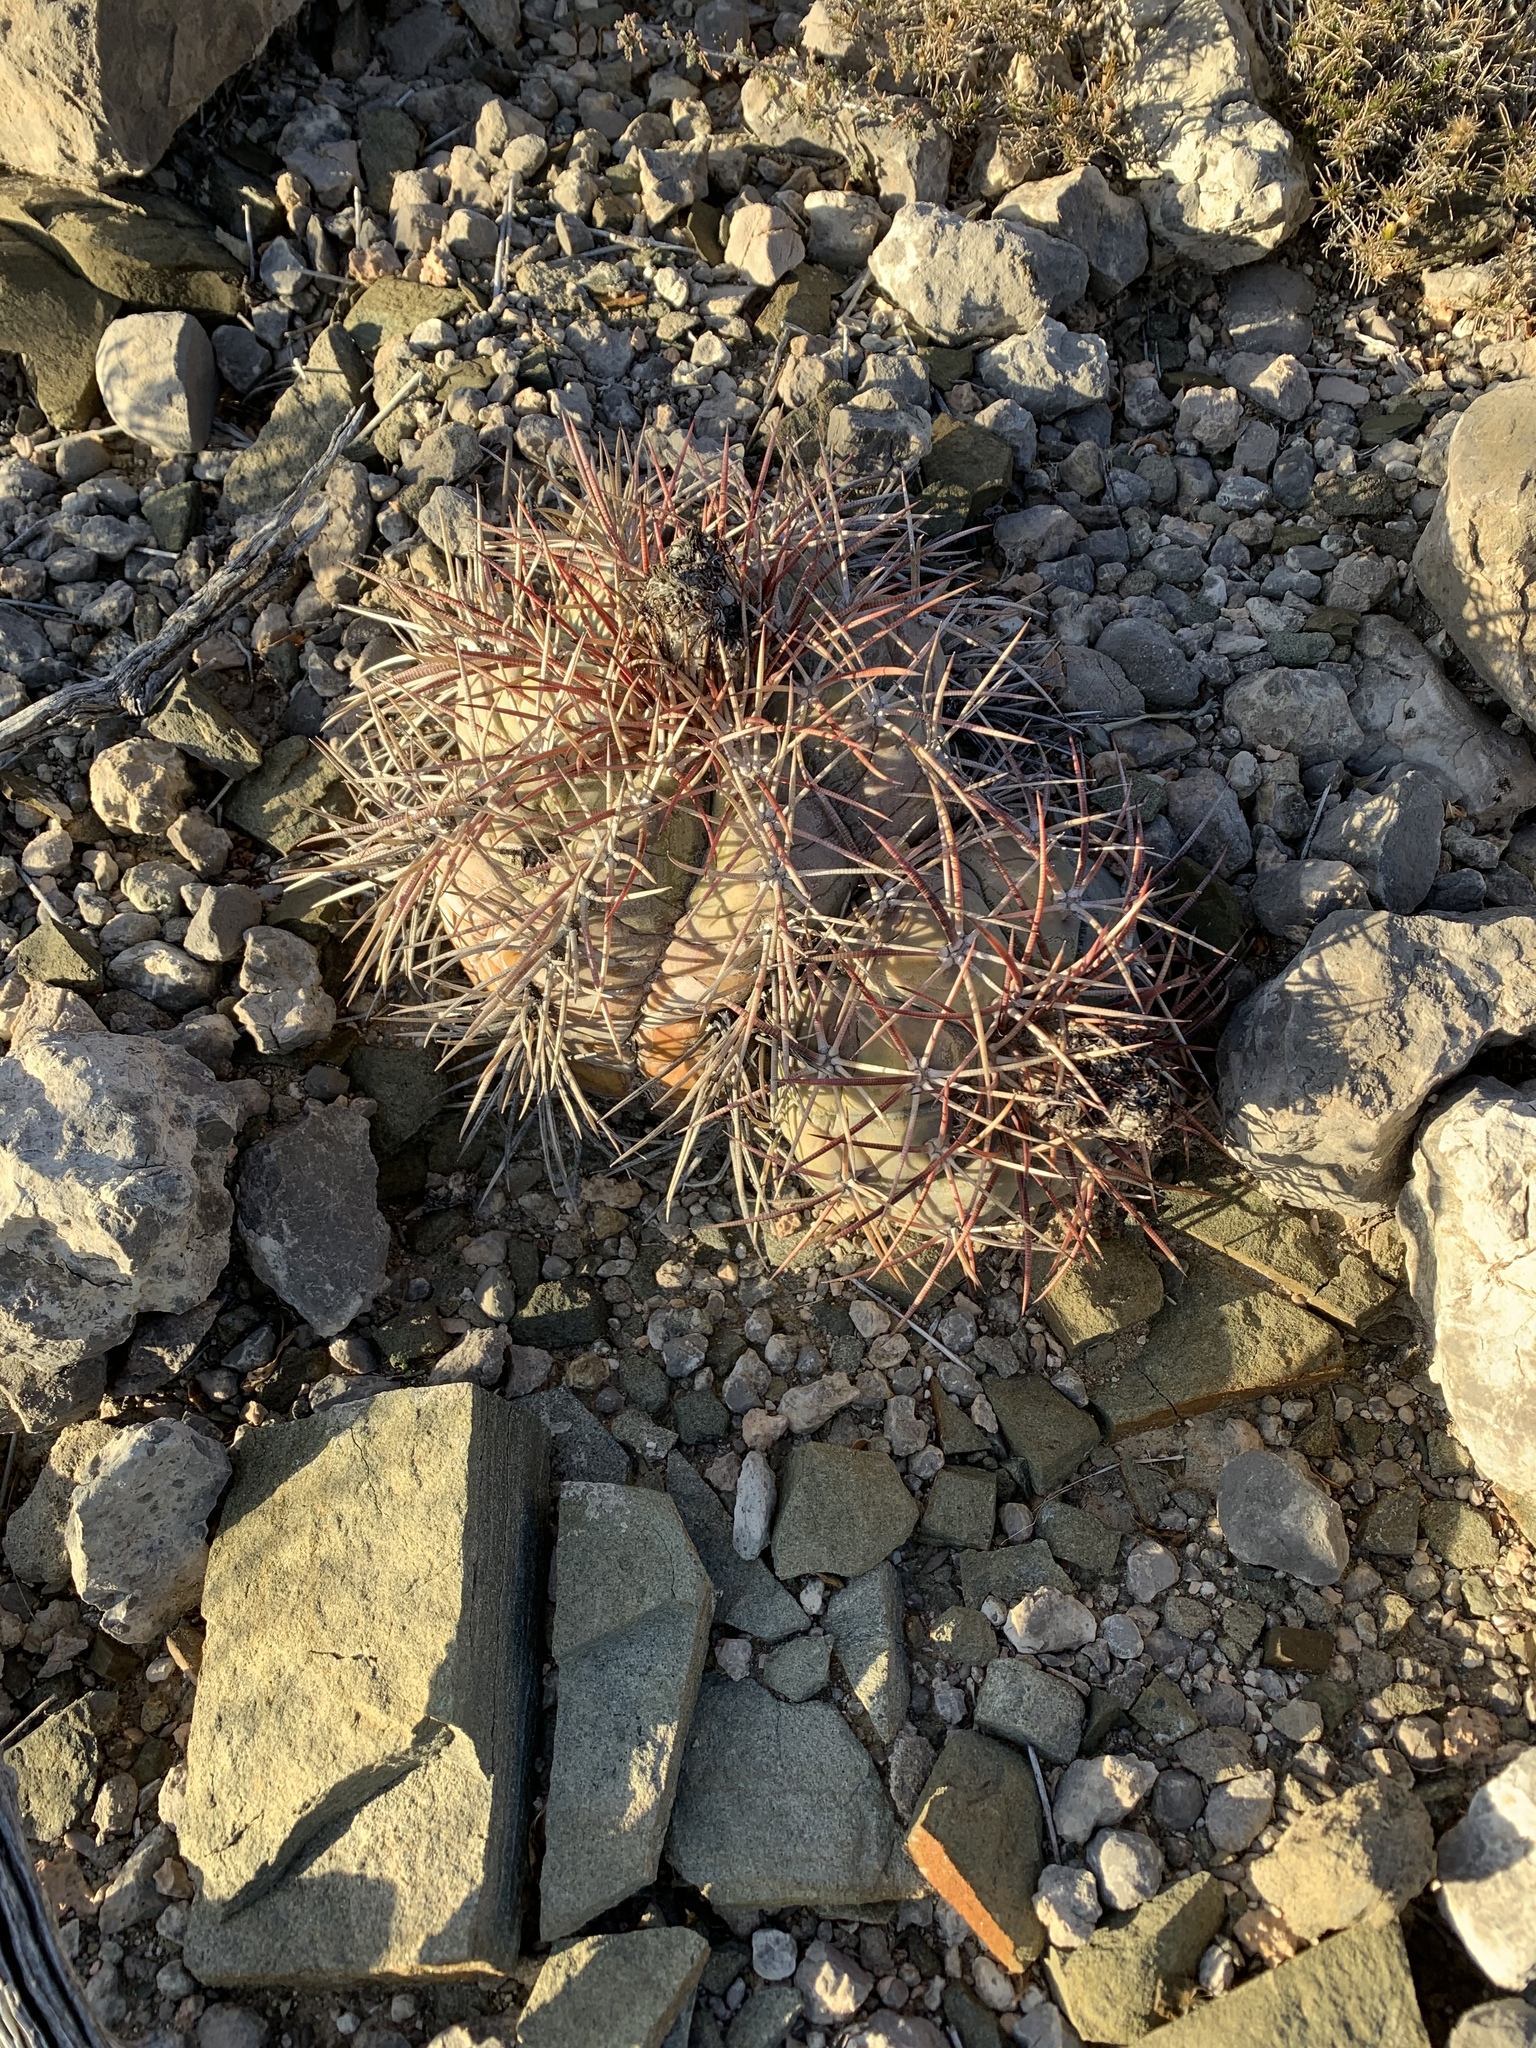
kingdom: Plantae
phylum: Tracheophyta
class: Magnoliopsida
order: Caryophyllales
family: Cactaceae
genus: Echinocactus
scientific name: Echinocactus horizonthalonius
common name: Devilshead
